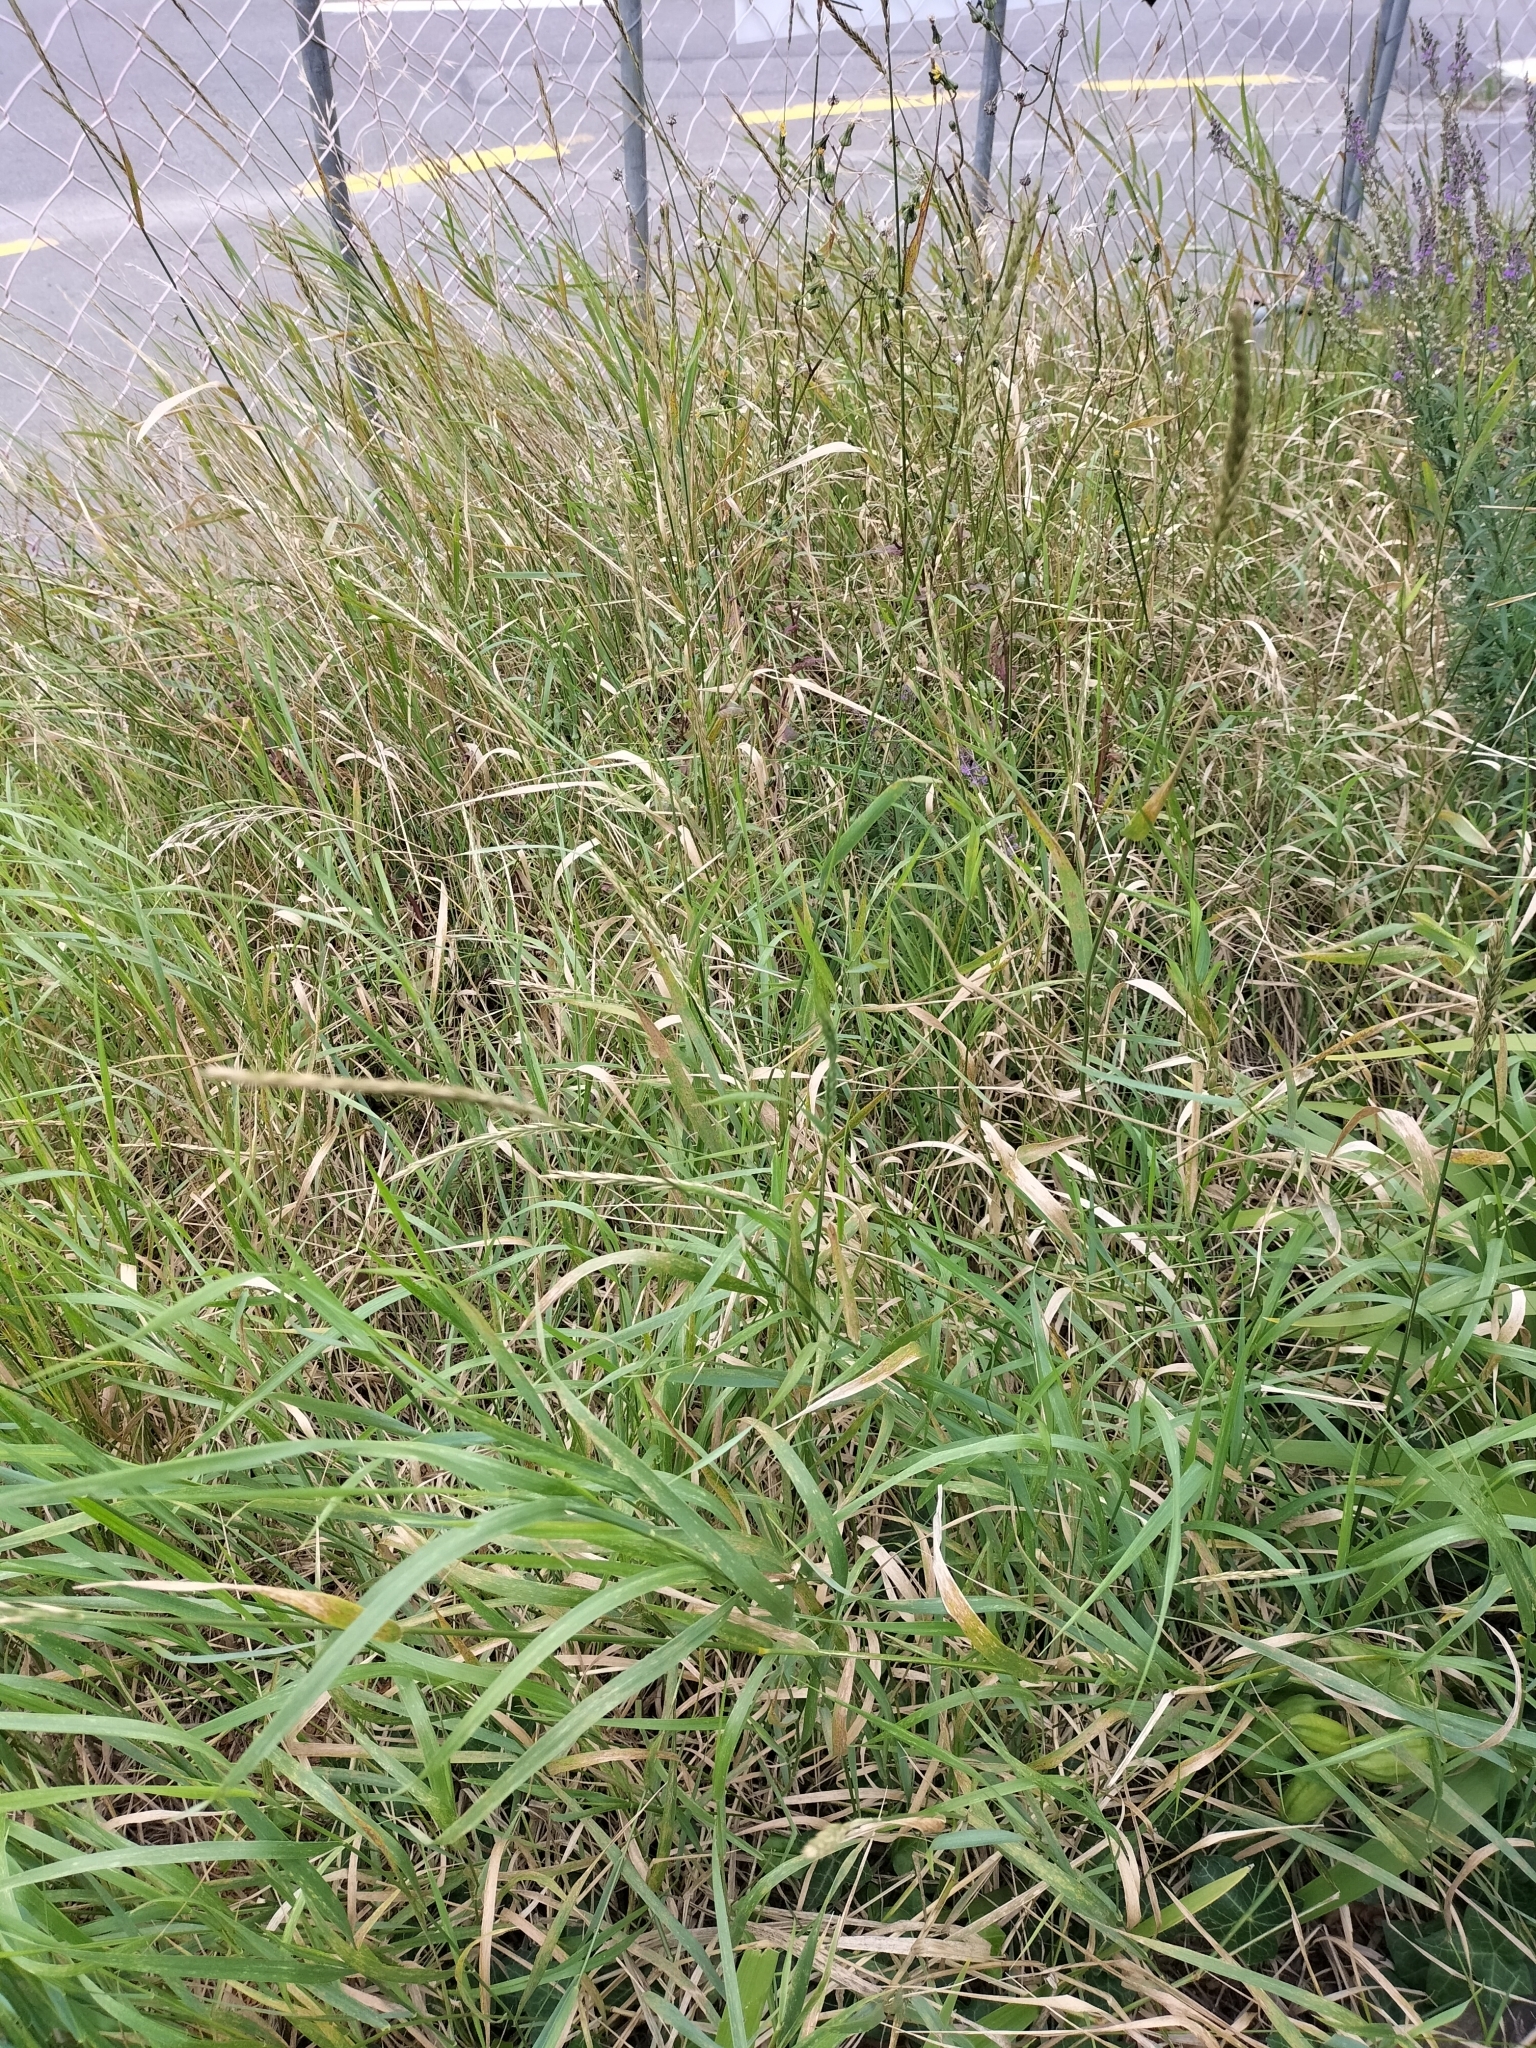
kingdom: Plantae
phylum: Tracheophyta
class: Liliopsida
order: Poales
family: Poaceae
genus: Elymus
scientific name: Elymus repens
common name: Quackgrass
